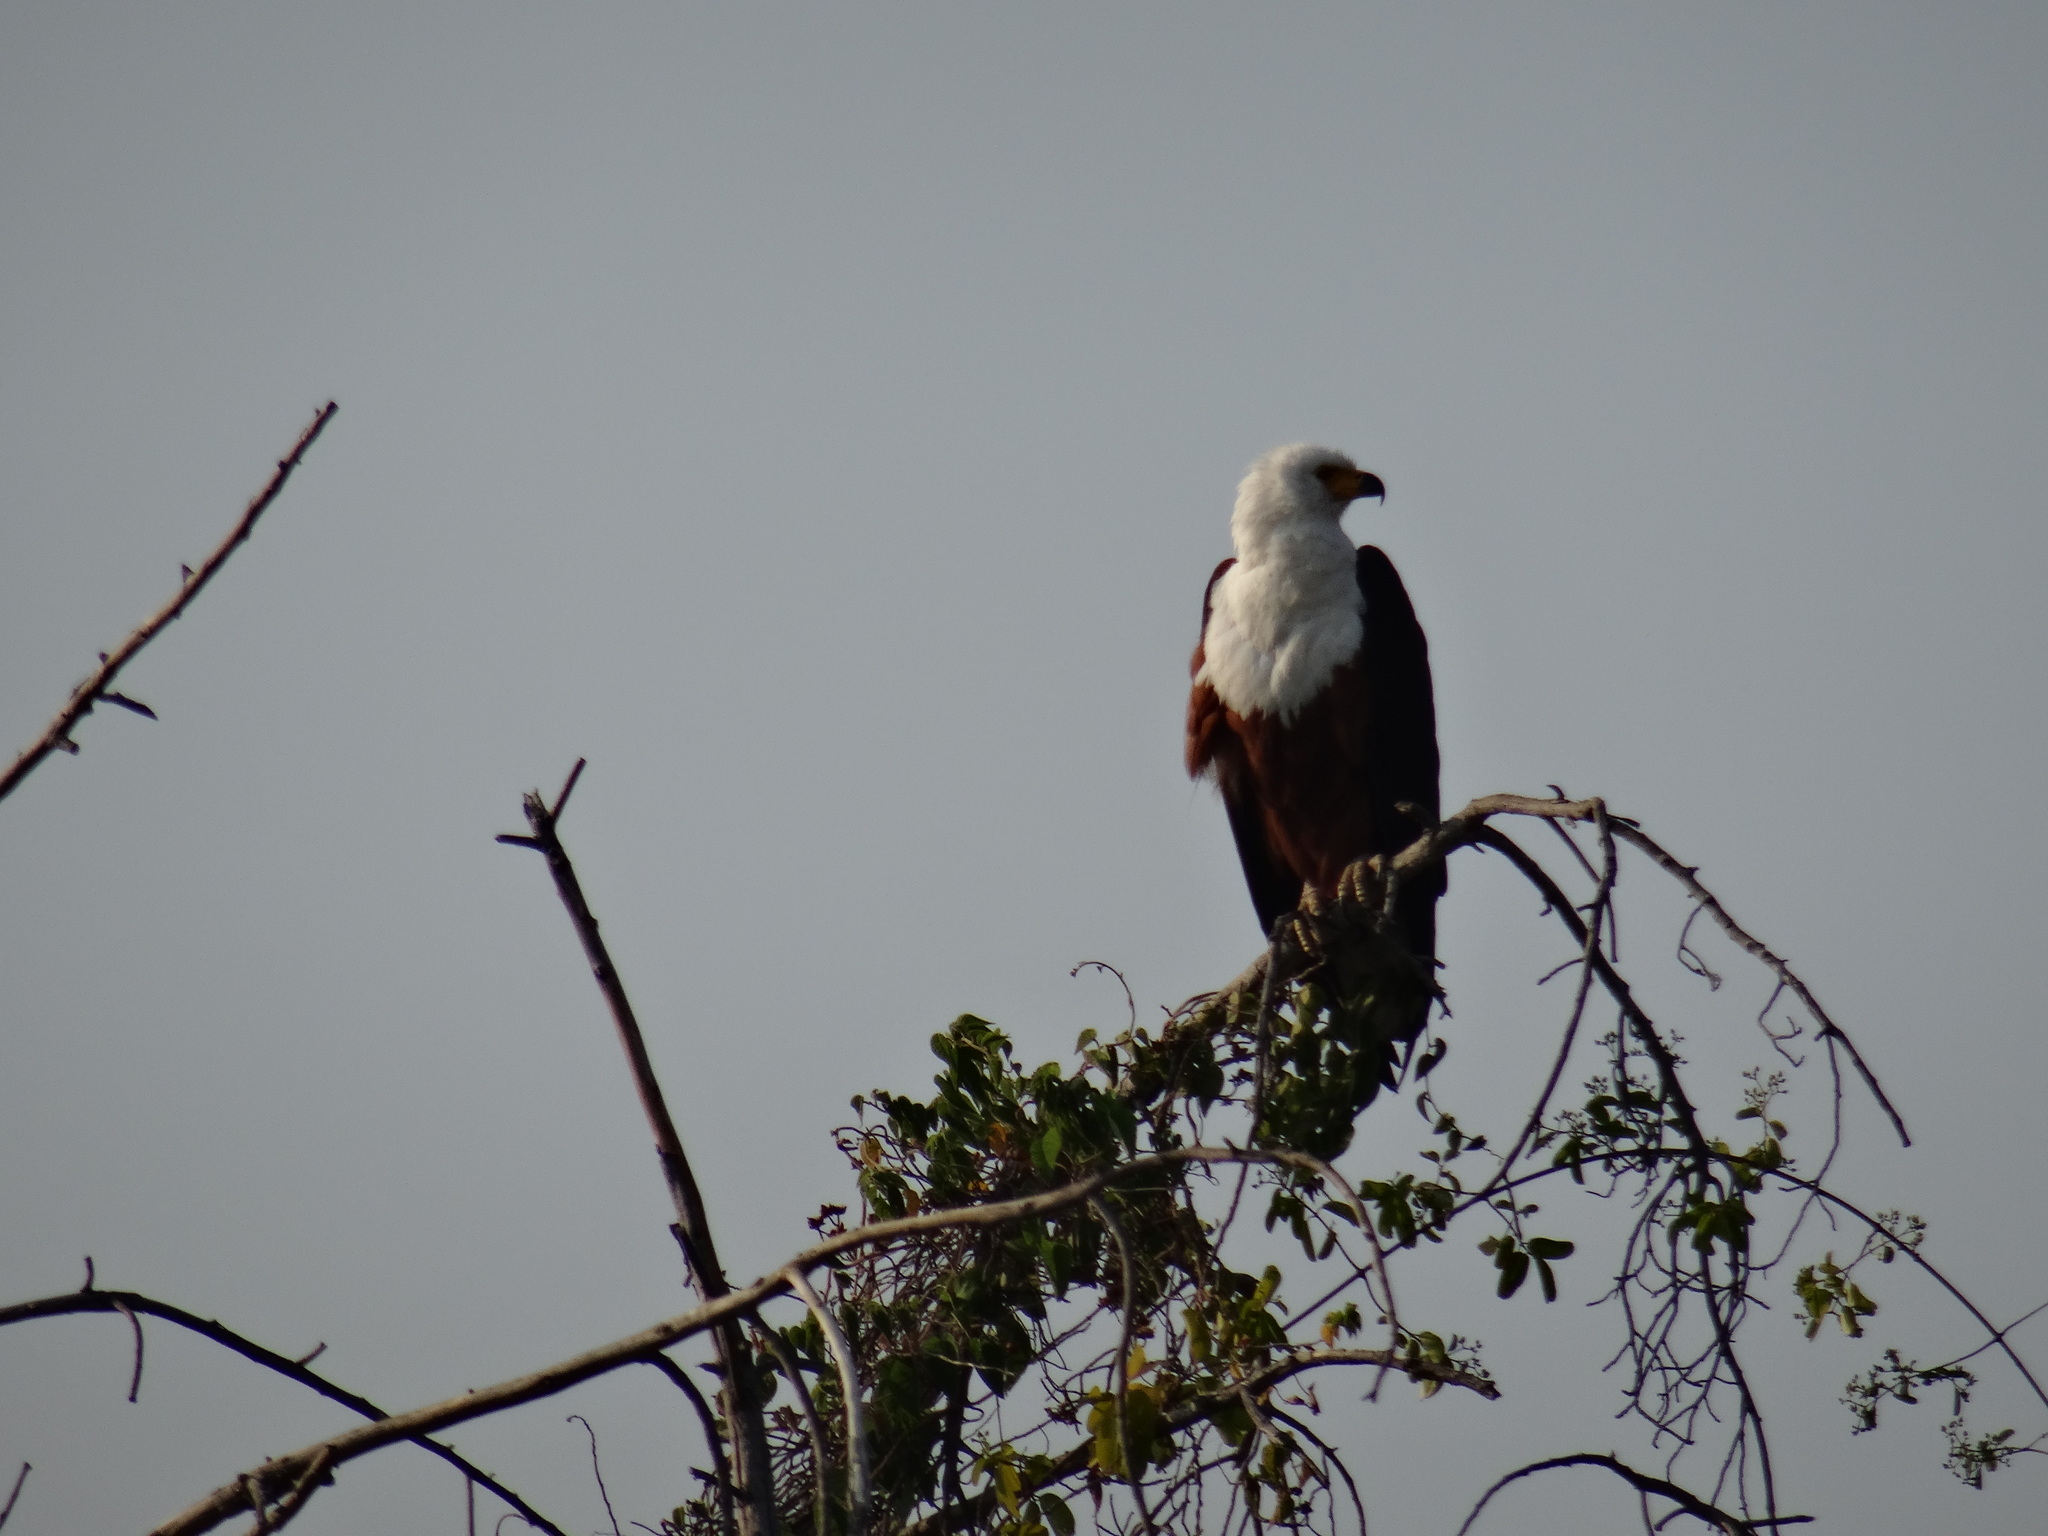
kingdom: Animalia
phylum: Chordata
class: Aves
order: Accipitriformes
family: Accipitridae
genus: Haliaeetus
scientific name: Haliaeetus vocifer
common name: African fish eagle
